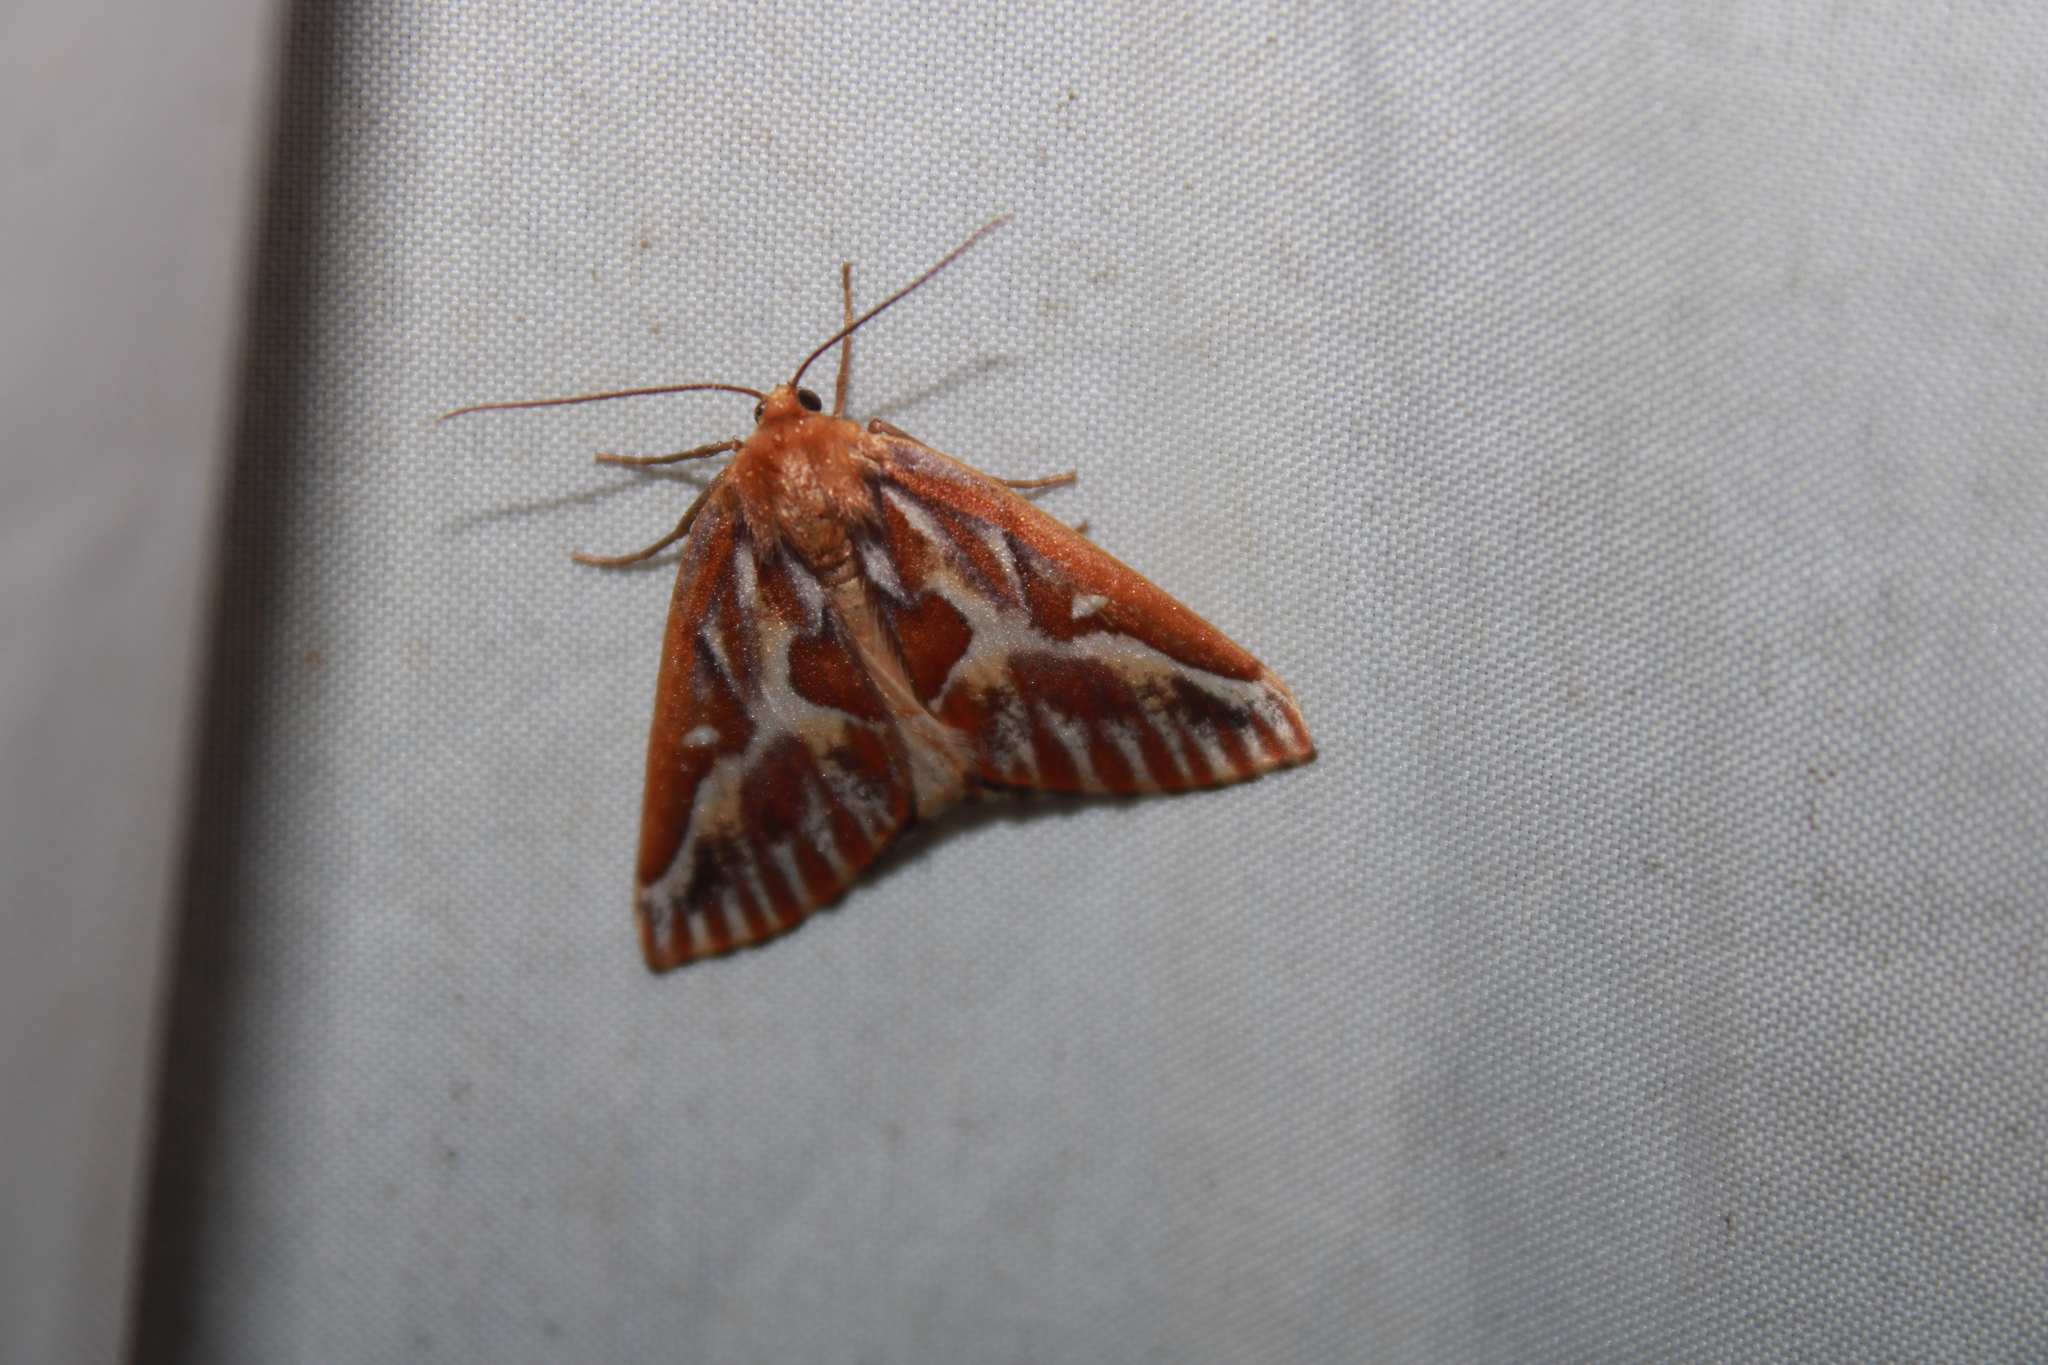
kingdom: Animalia
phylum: Arthropoda
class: Insecta
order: Lepidoptera
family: Geometridae
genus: Caripeta
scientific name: Caripeta piniata
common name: Northern pine looper moth
